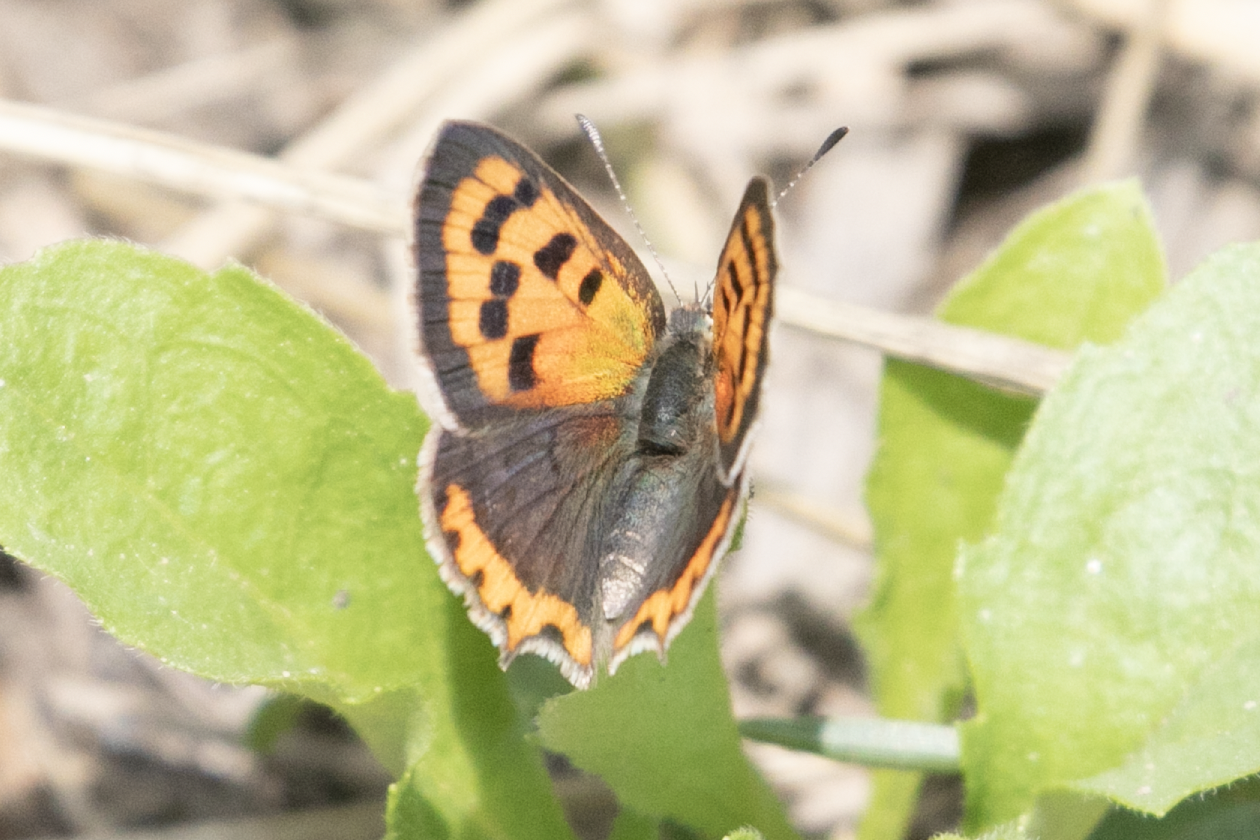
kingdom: Animalia
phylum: Arthropoda
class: Insecta
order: Lepidoptera
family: Lycaenidae
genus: Lycaena
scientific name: Lycaena phlaeas
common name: Small copper
